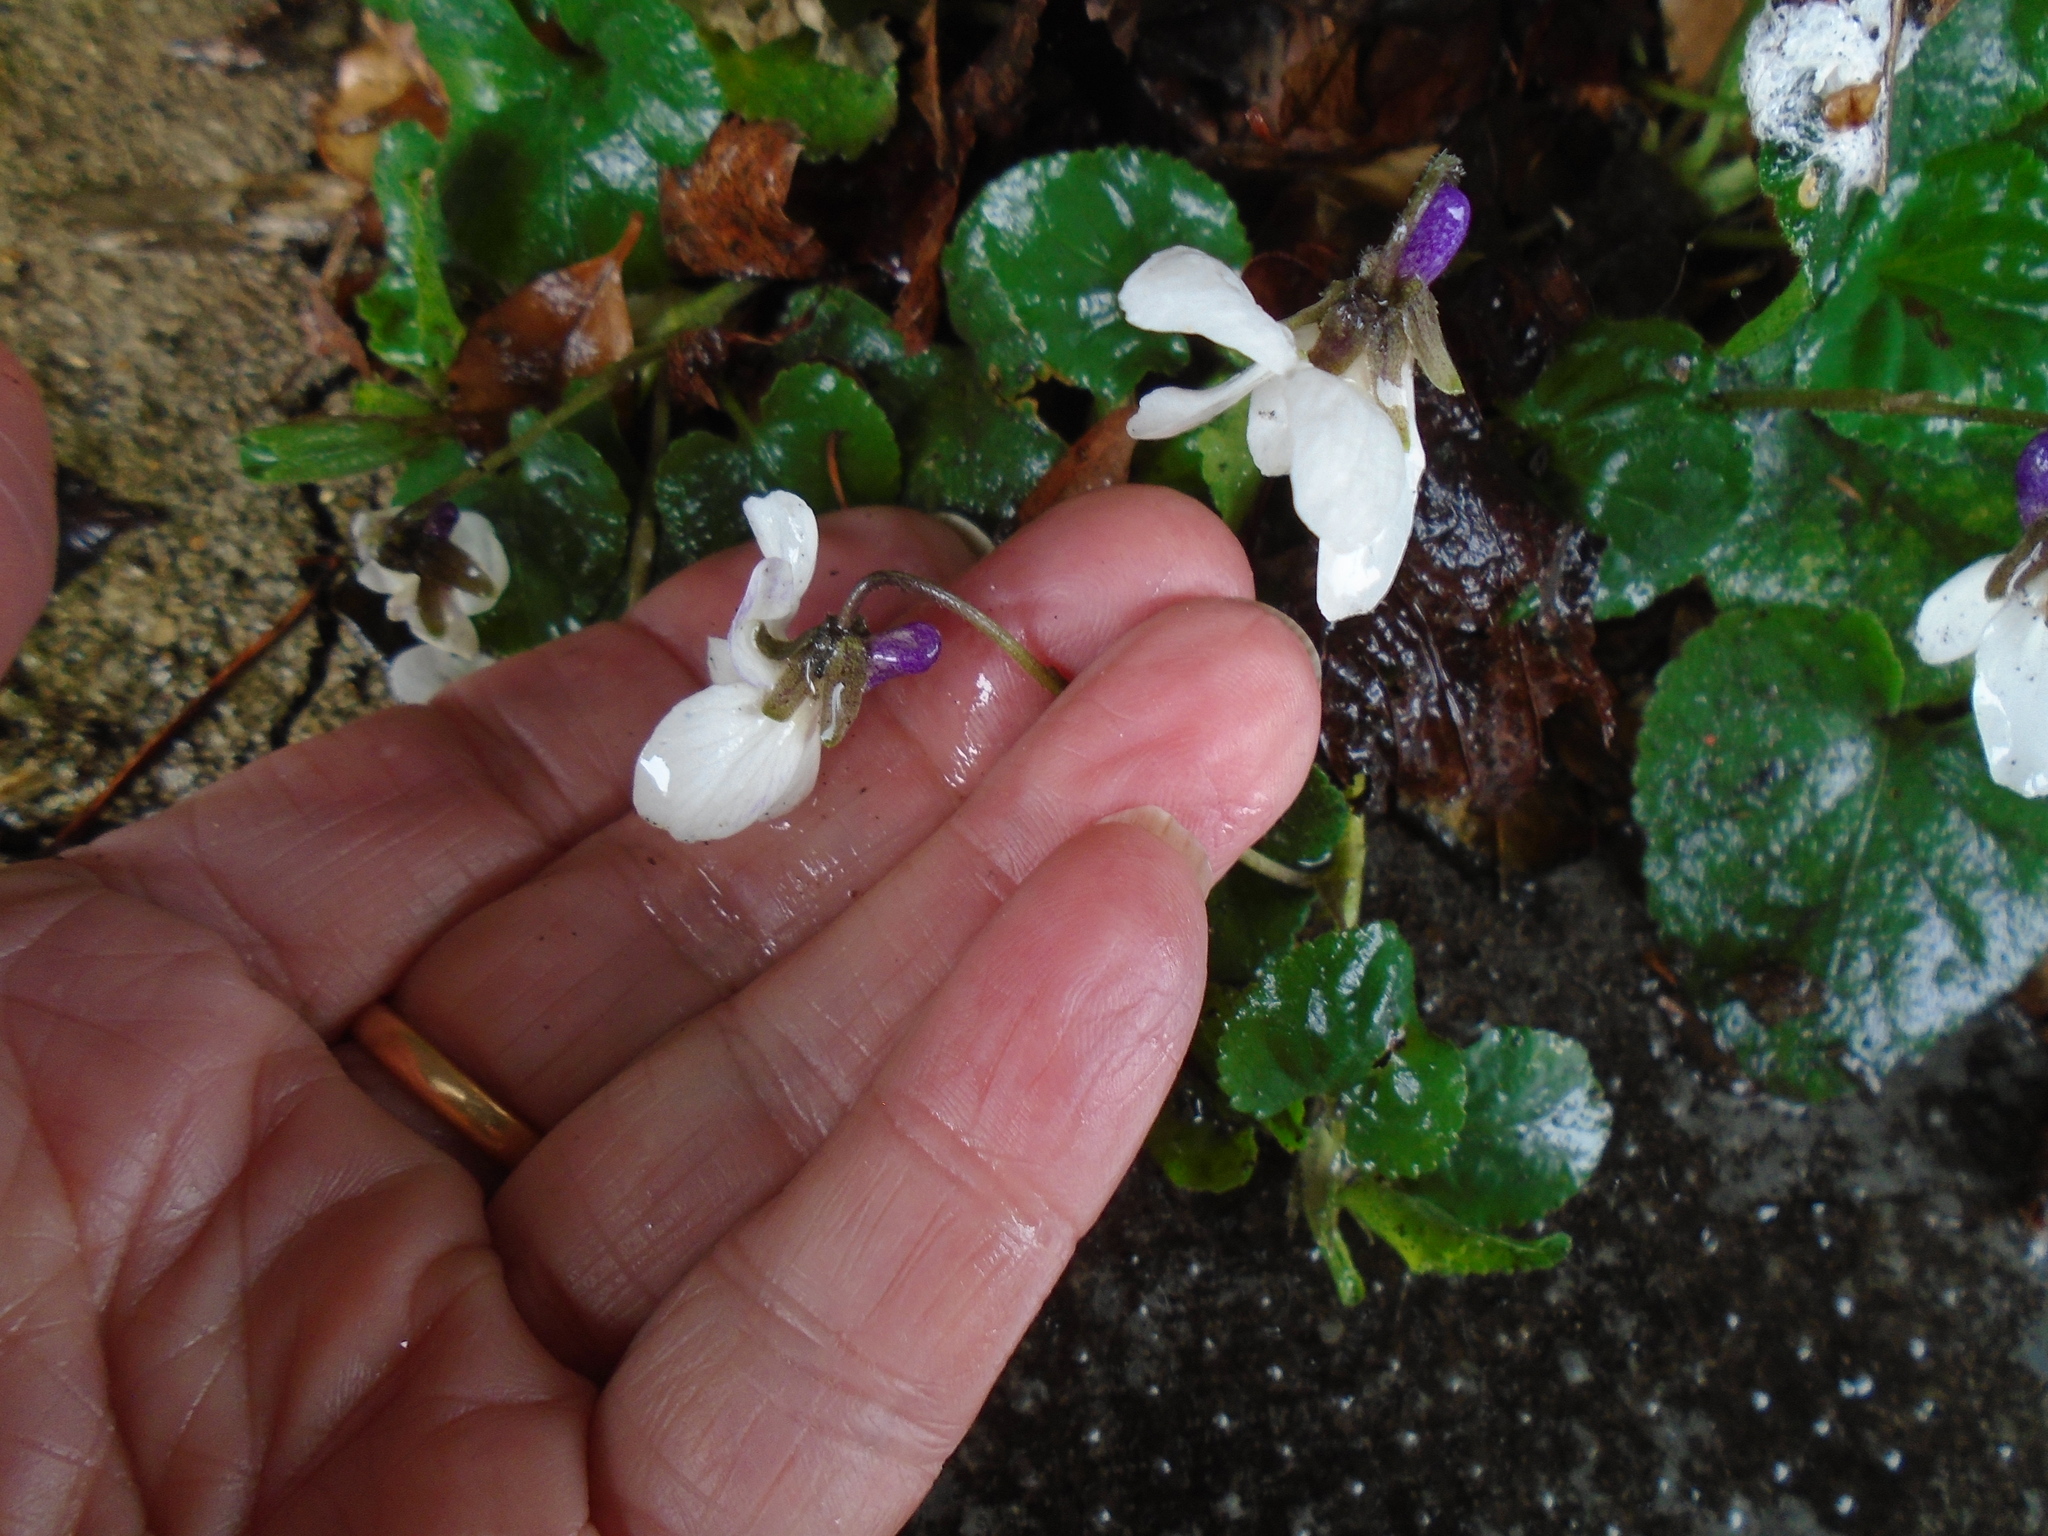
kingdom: Plantae
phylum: Tracheophyta
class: Magnoliopsida
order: Malpighiales
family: Violaceae
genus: Viola
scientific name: Viola odorata
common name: Sweet violet
